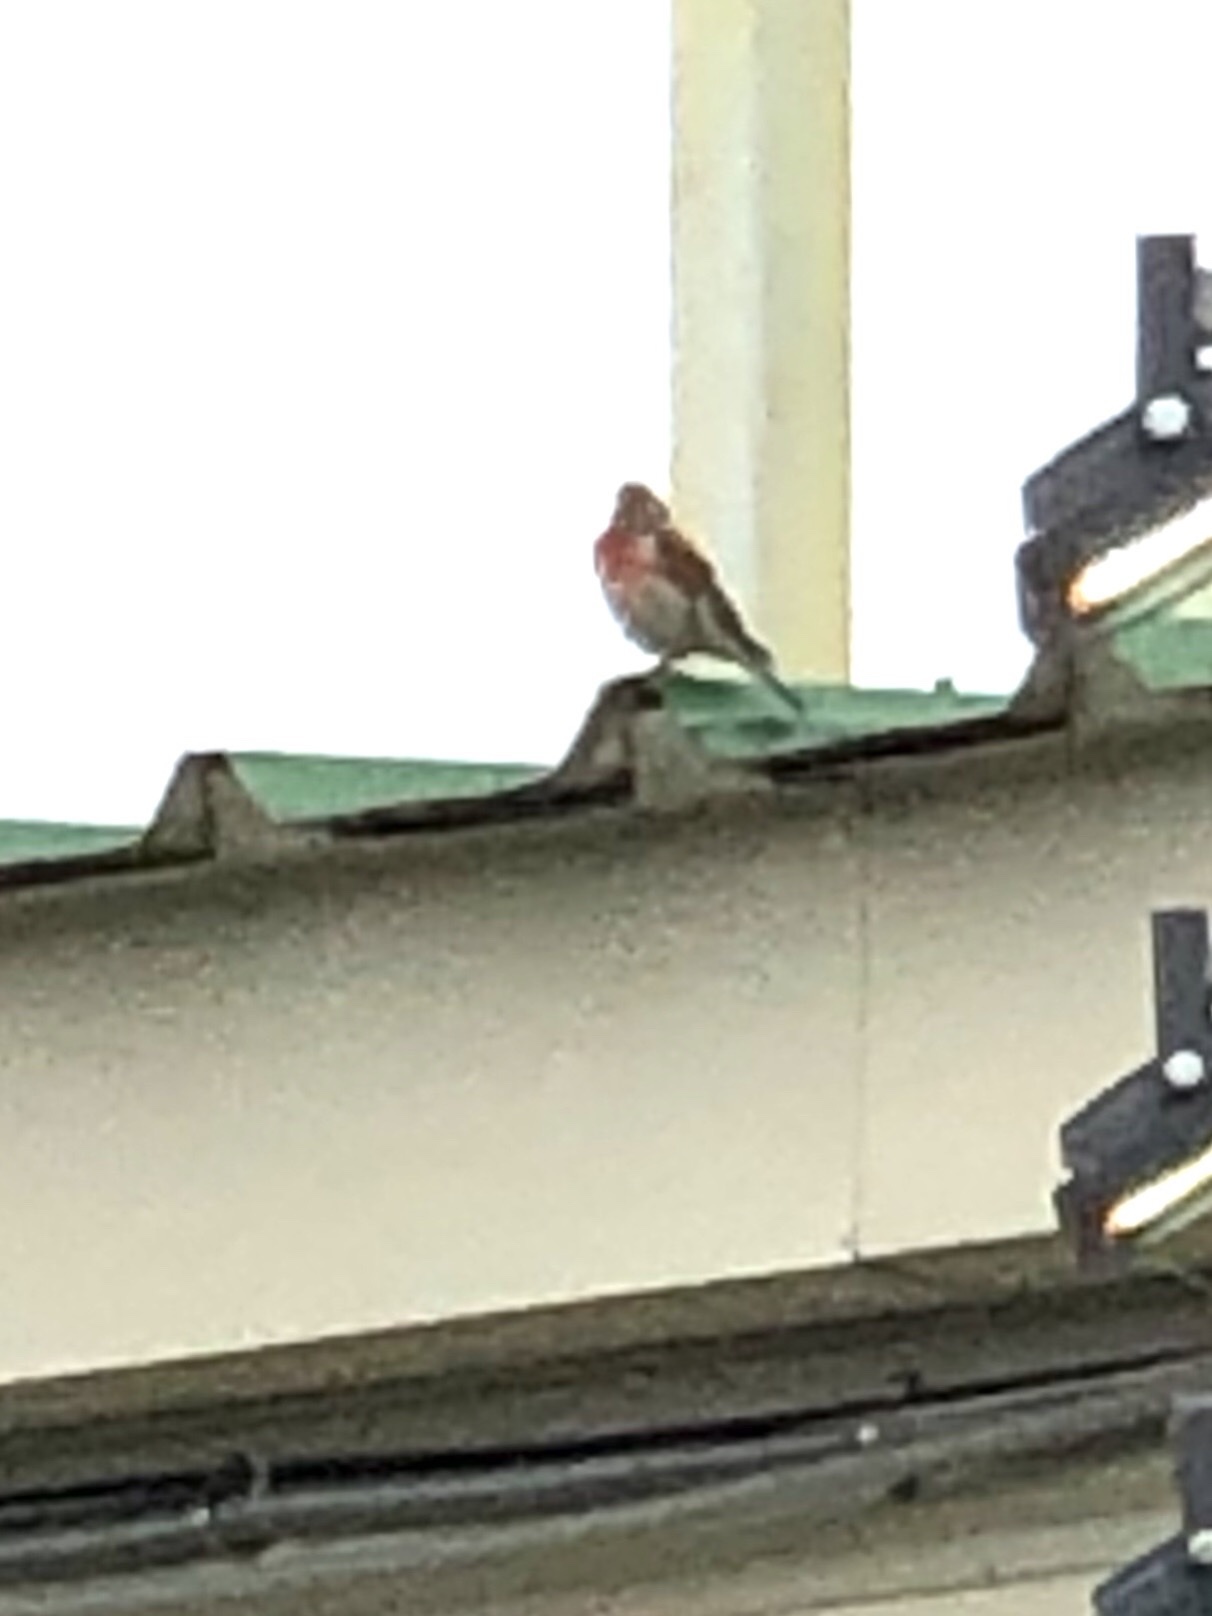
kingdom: Animalia
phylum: Chordata
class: Aves
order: Passeriformes
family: Fringillidae
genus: Linaria
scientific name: Linaria cannabina
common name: Common linnet
